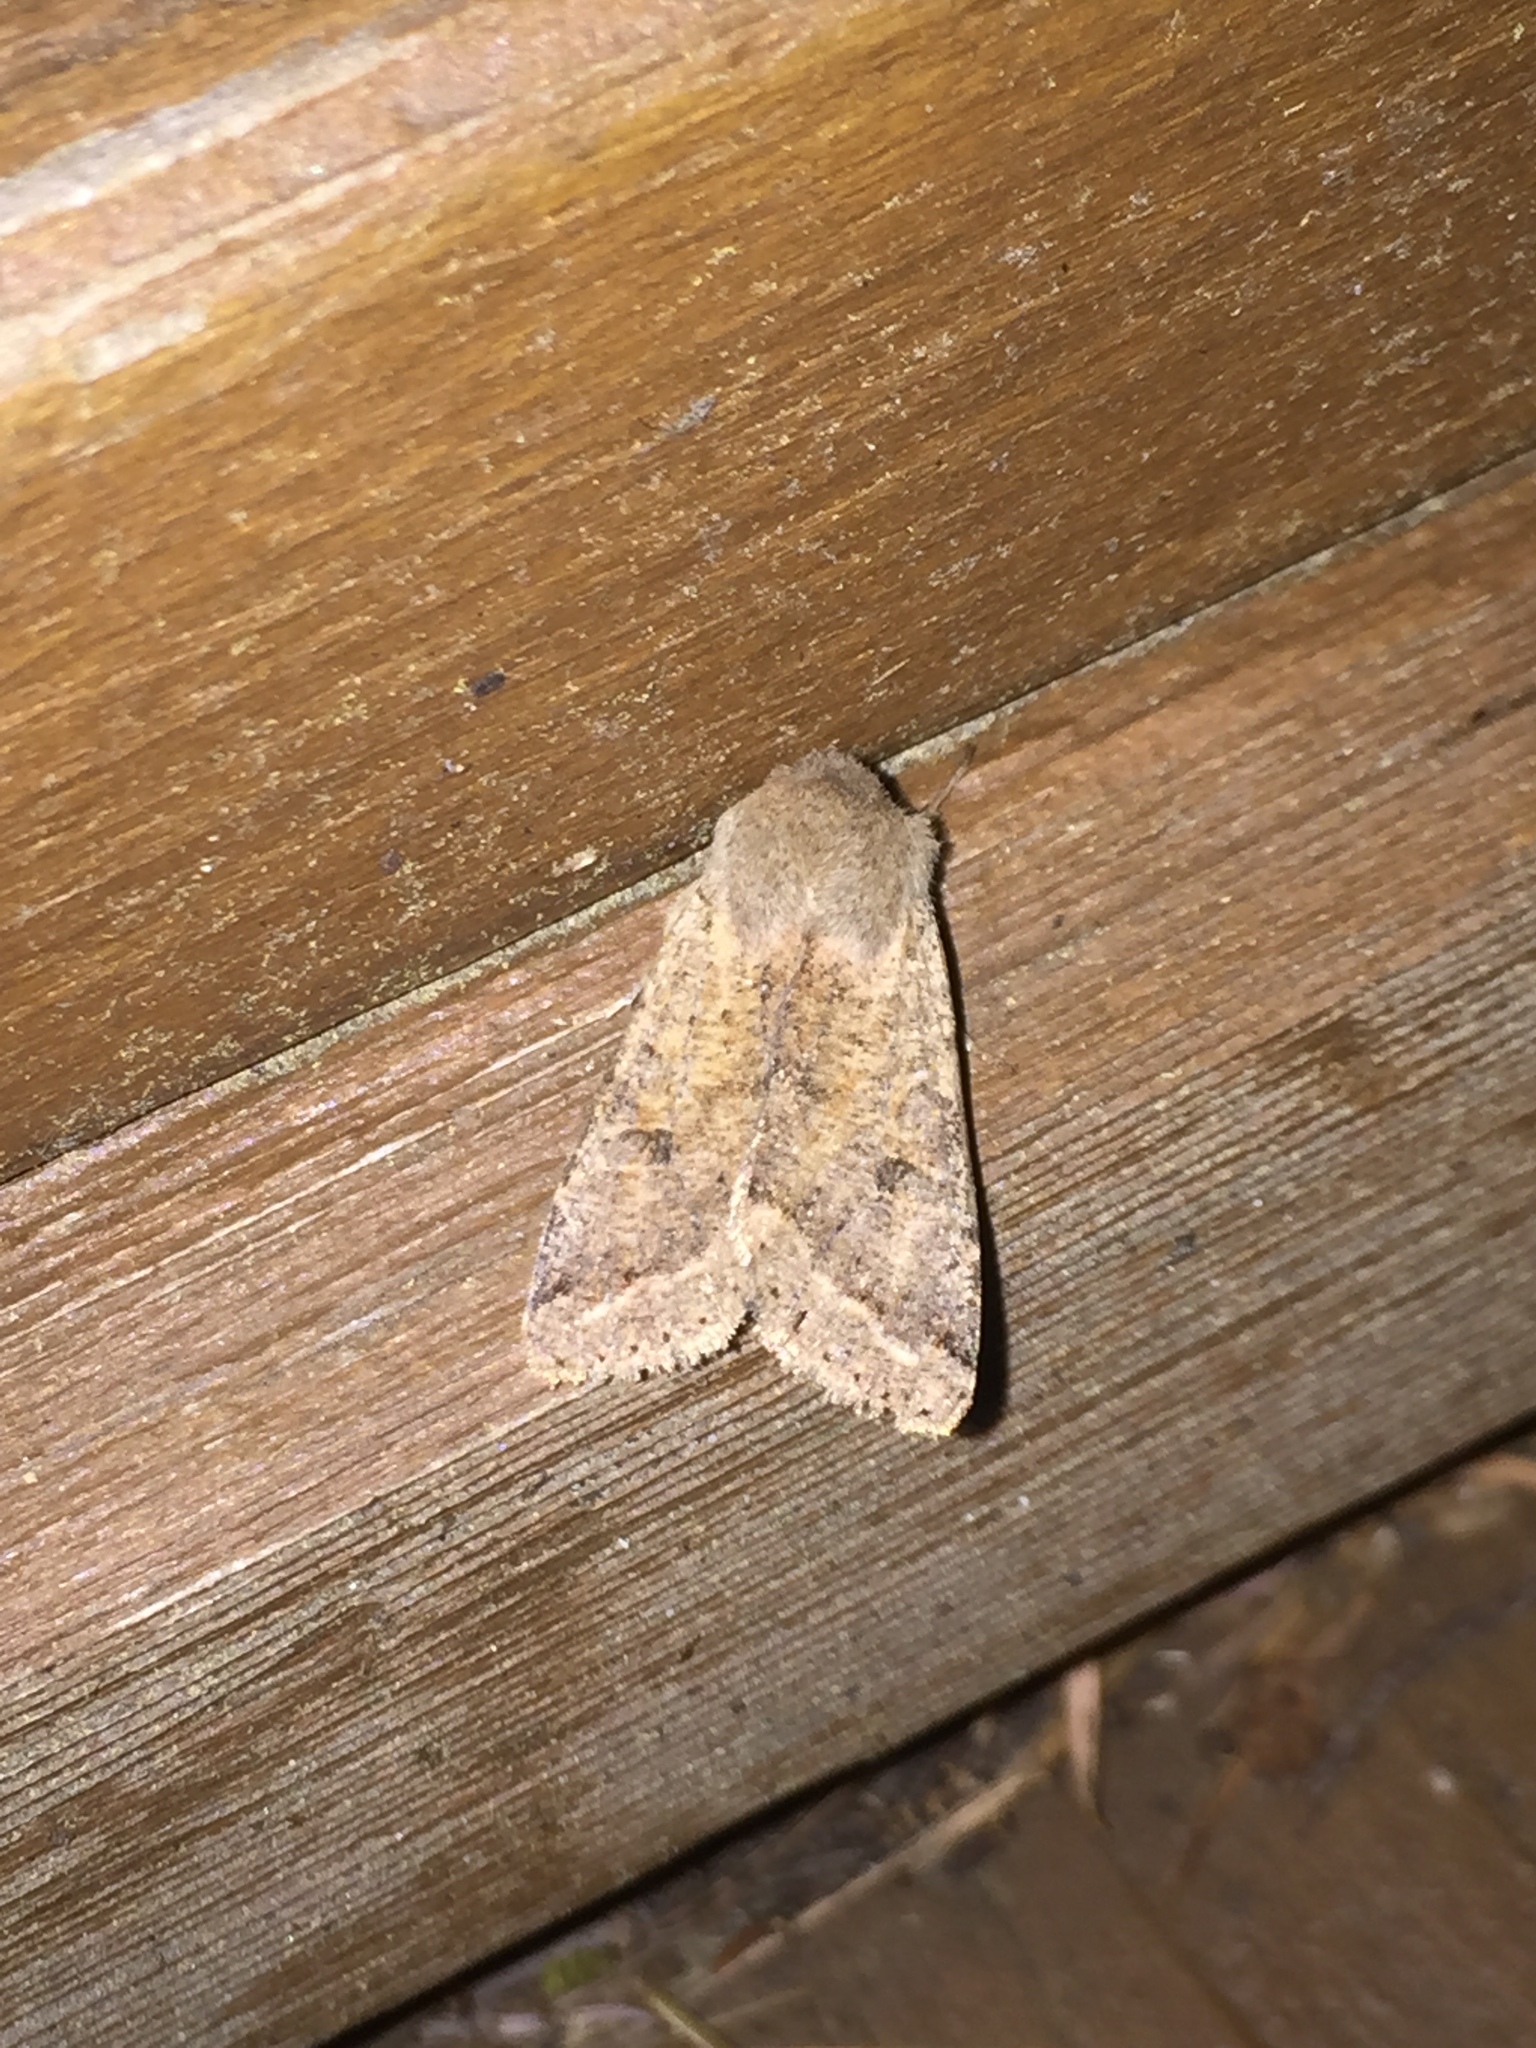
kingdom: Animalia
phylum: Arthropoda
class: Insecta
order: Lepidoptera
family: Noctuidae
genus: Orthosia
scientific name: Orthosia pacifica
